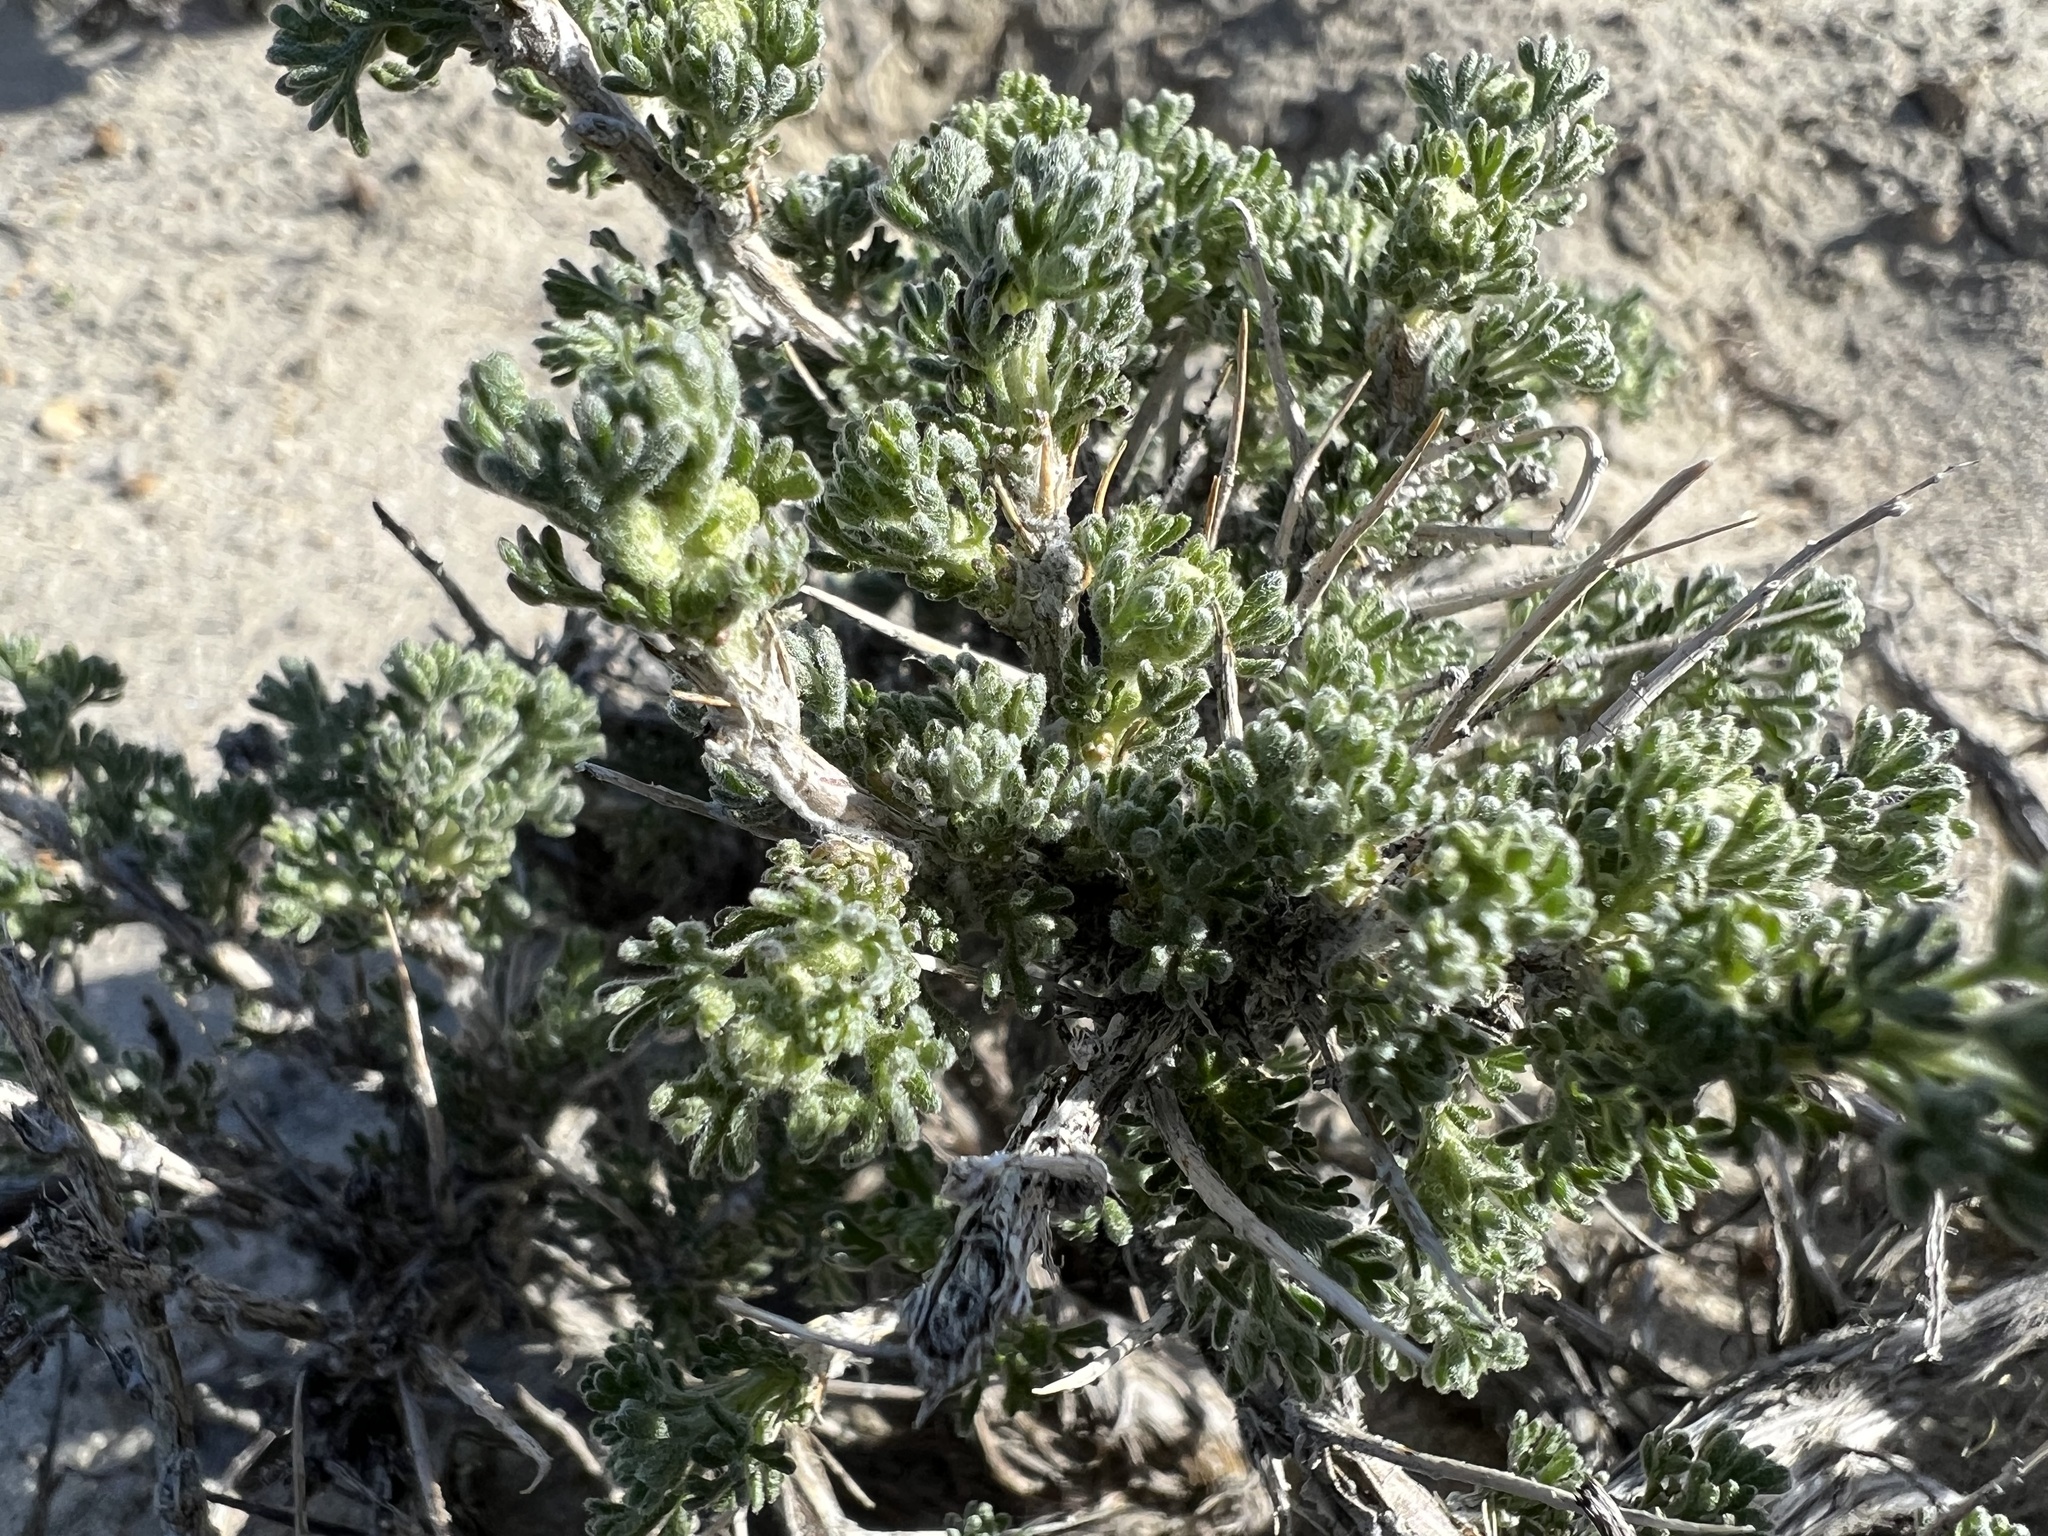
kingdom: Plantae
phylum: Tracheophyta
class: Magnoliopsida
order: Asterales
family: Asteraceae
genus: Artemisia
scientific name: Artemisia spinescens
